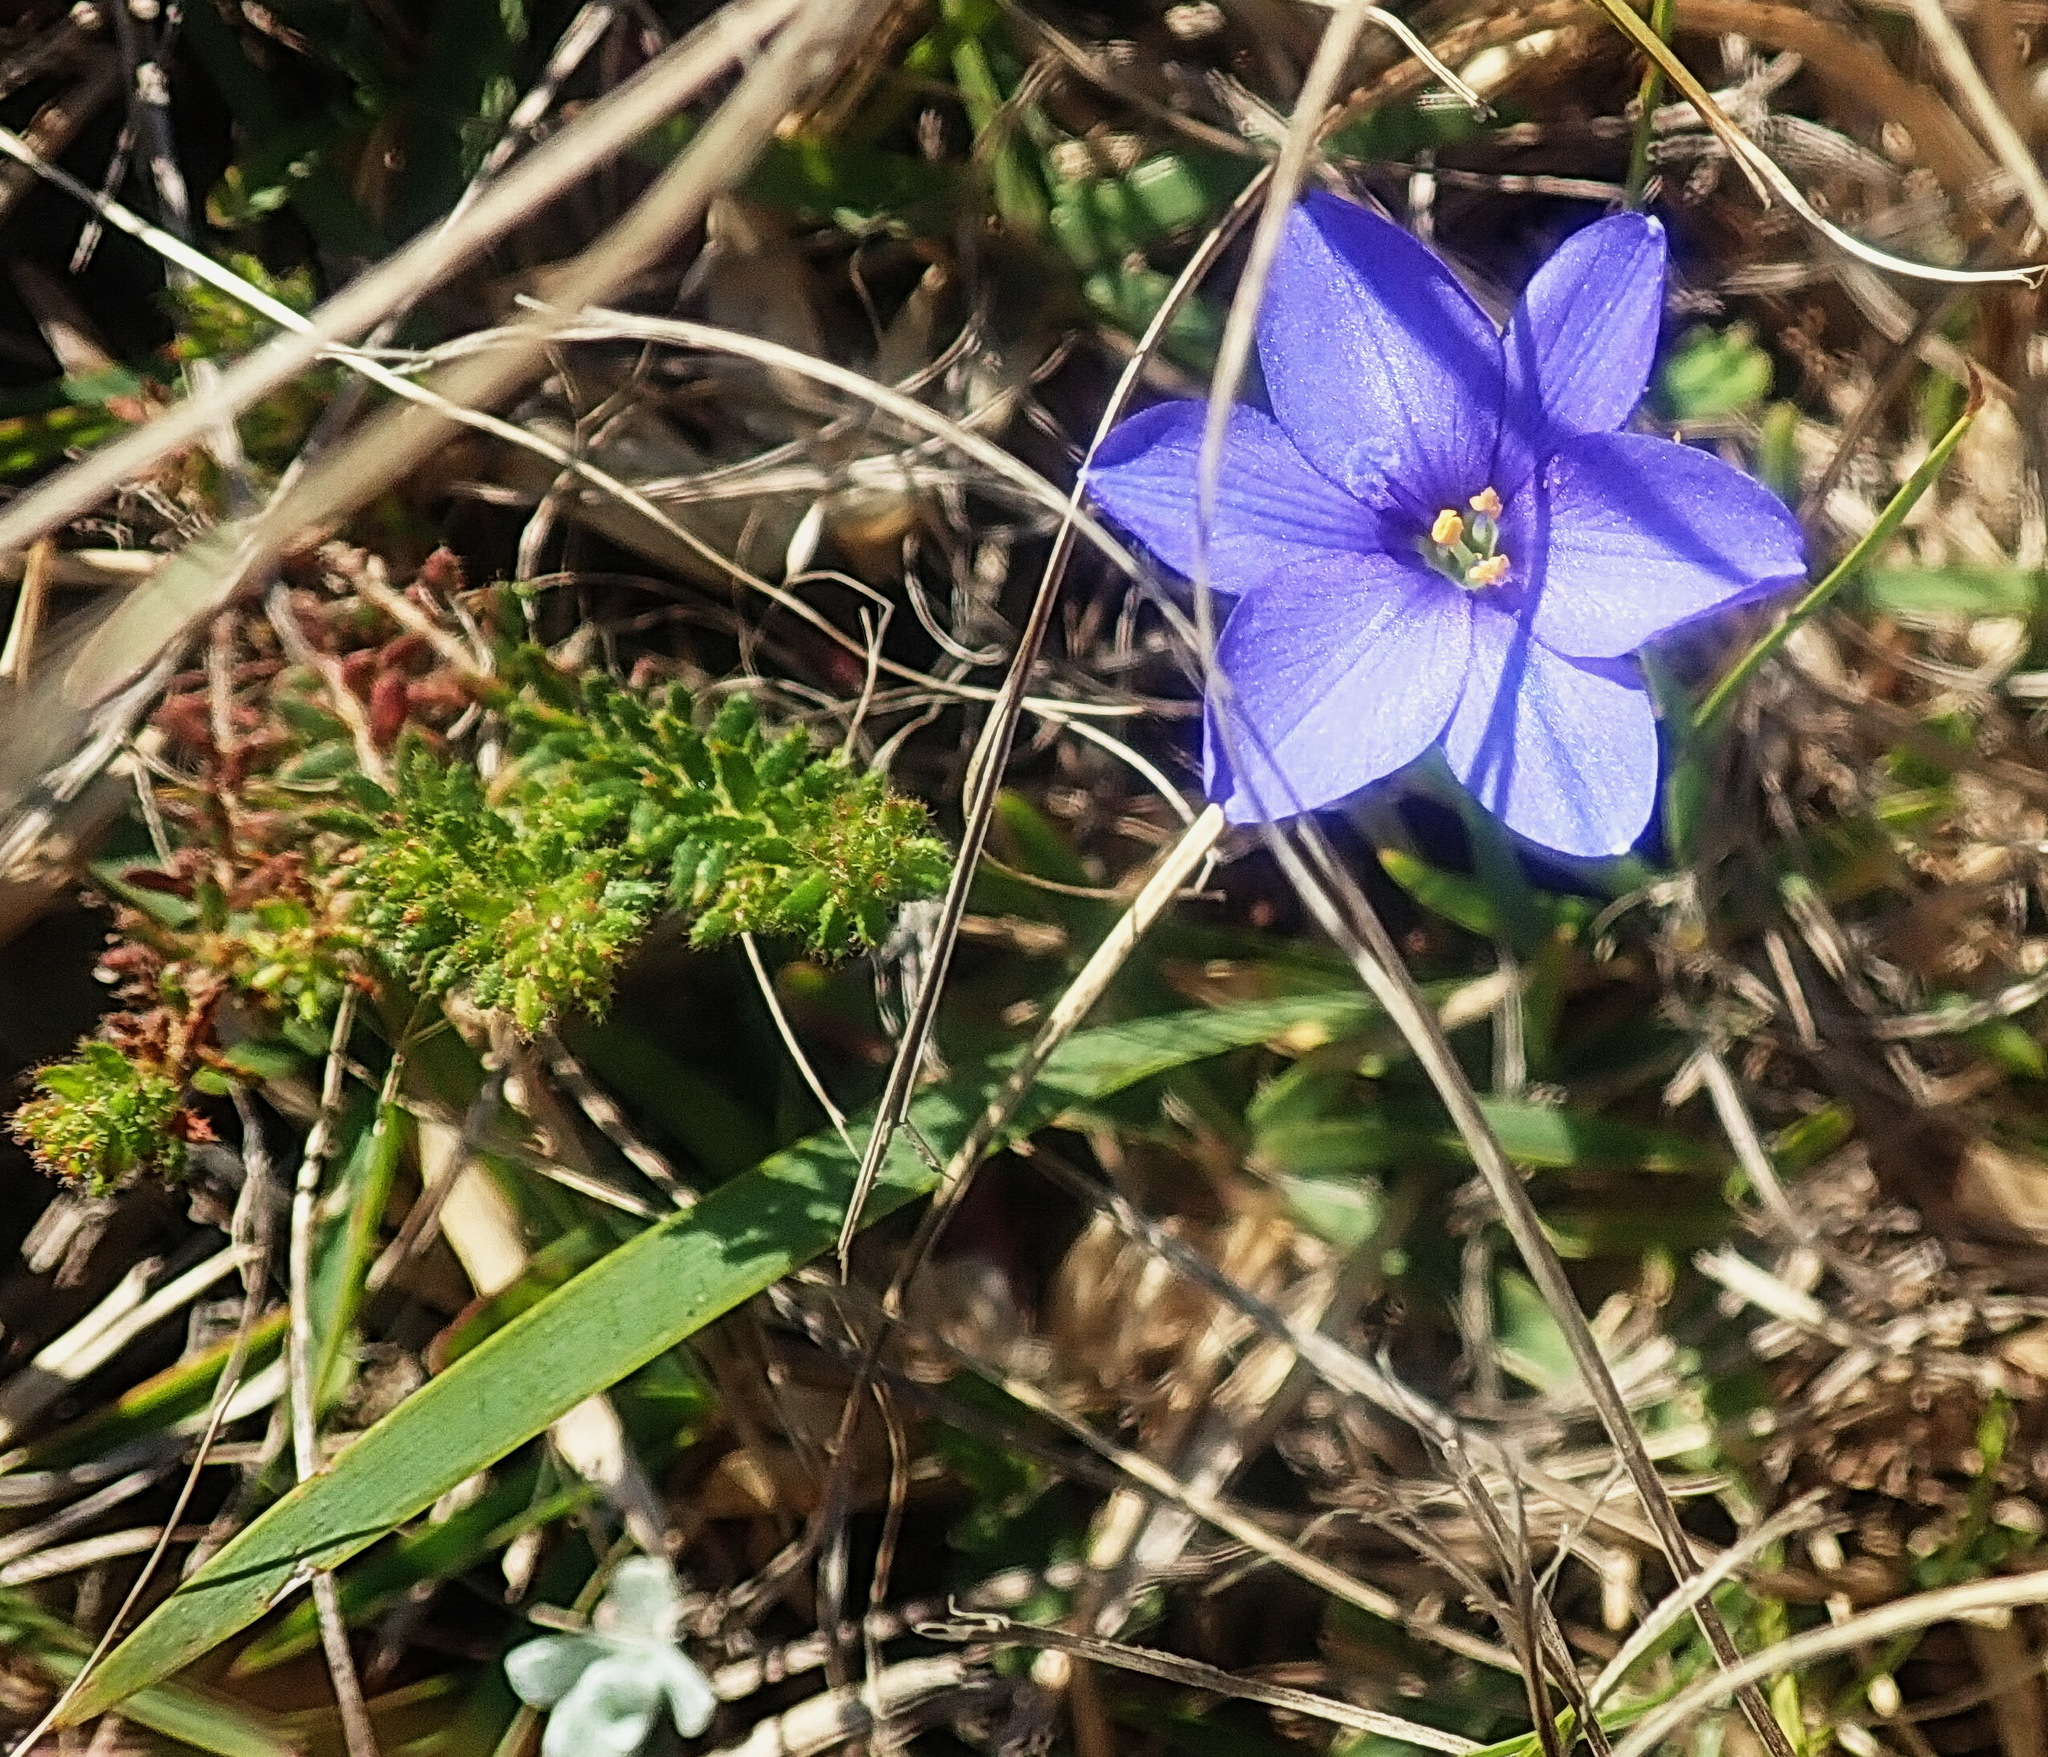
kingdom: Plantae
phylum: Tracheophyta
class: Liliopsida
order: Asparagales
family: Iridaceae
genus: Aristea
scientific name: Aristea pusilla
